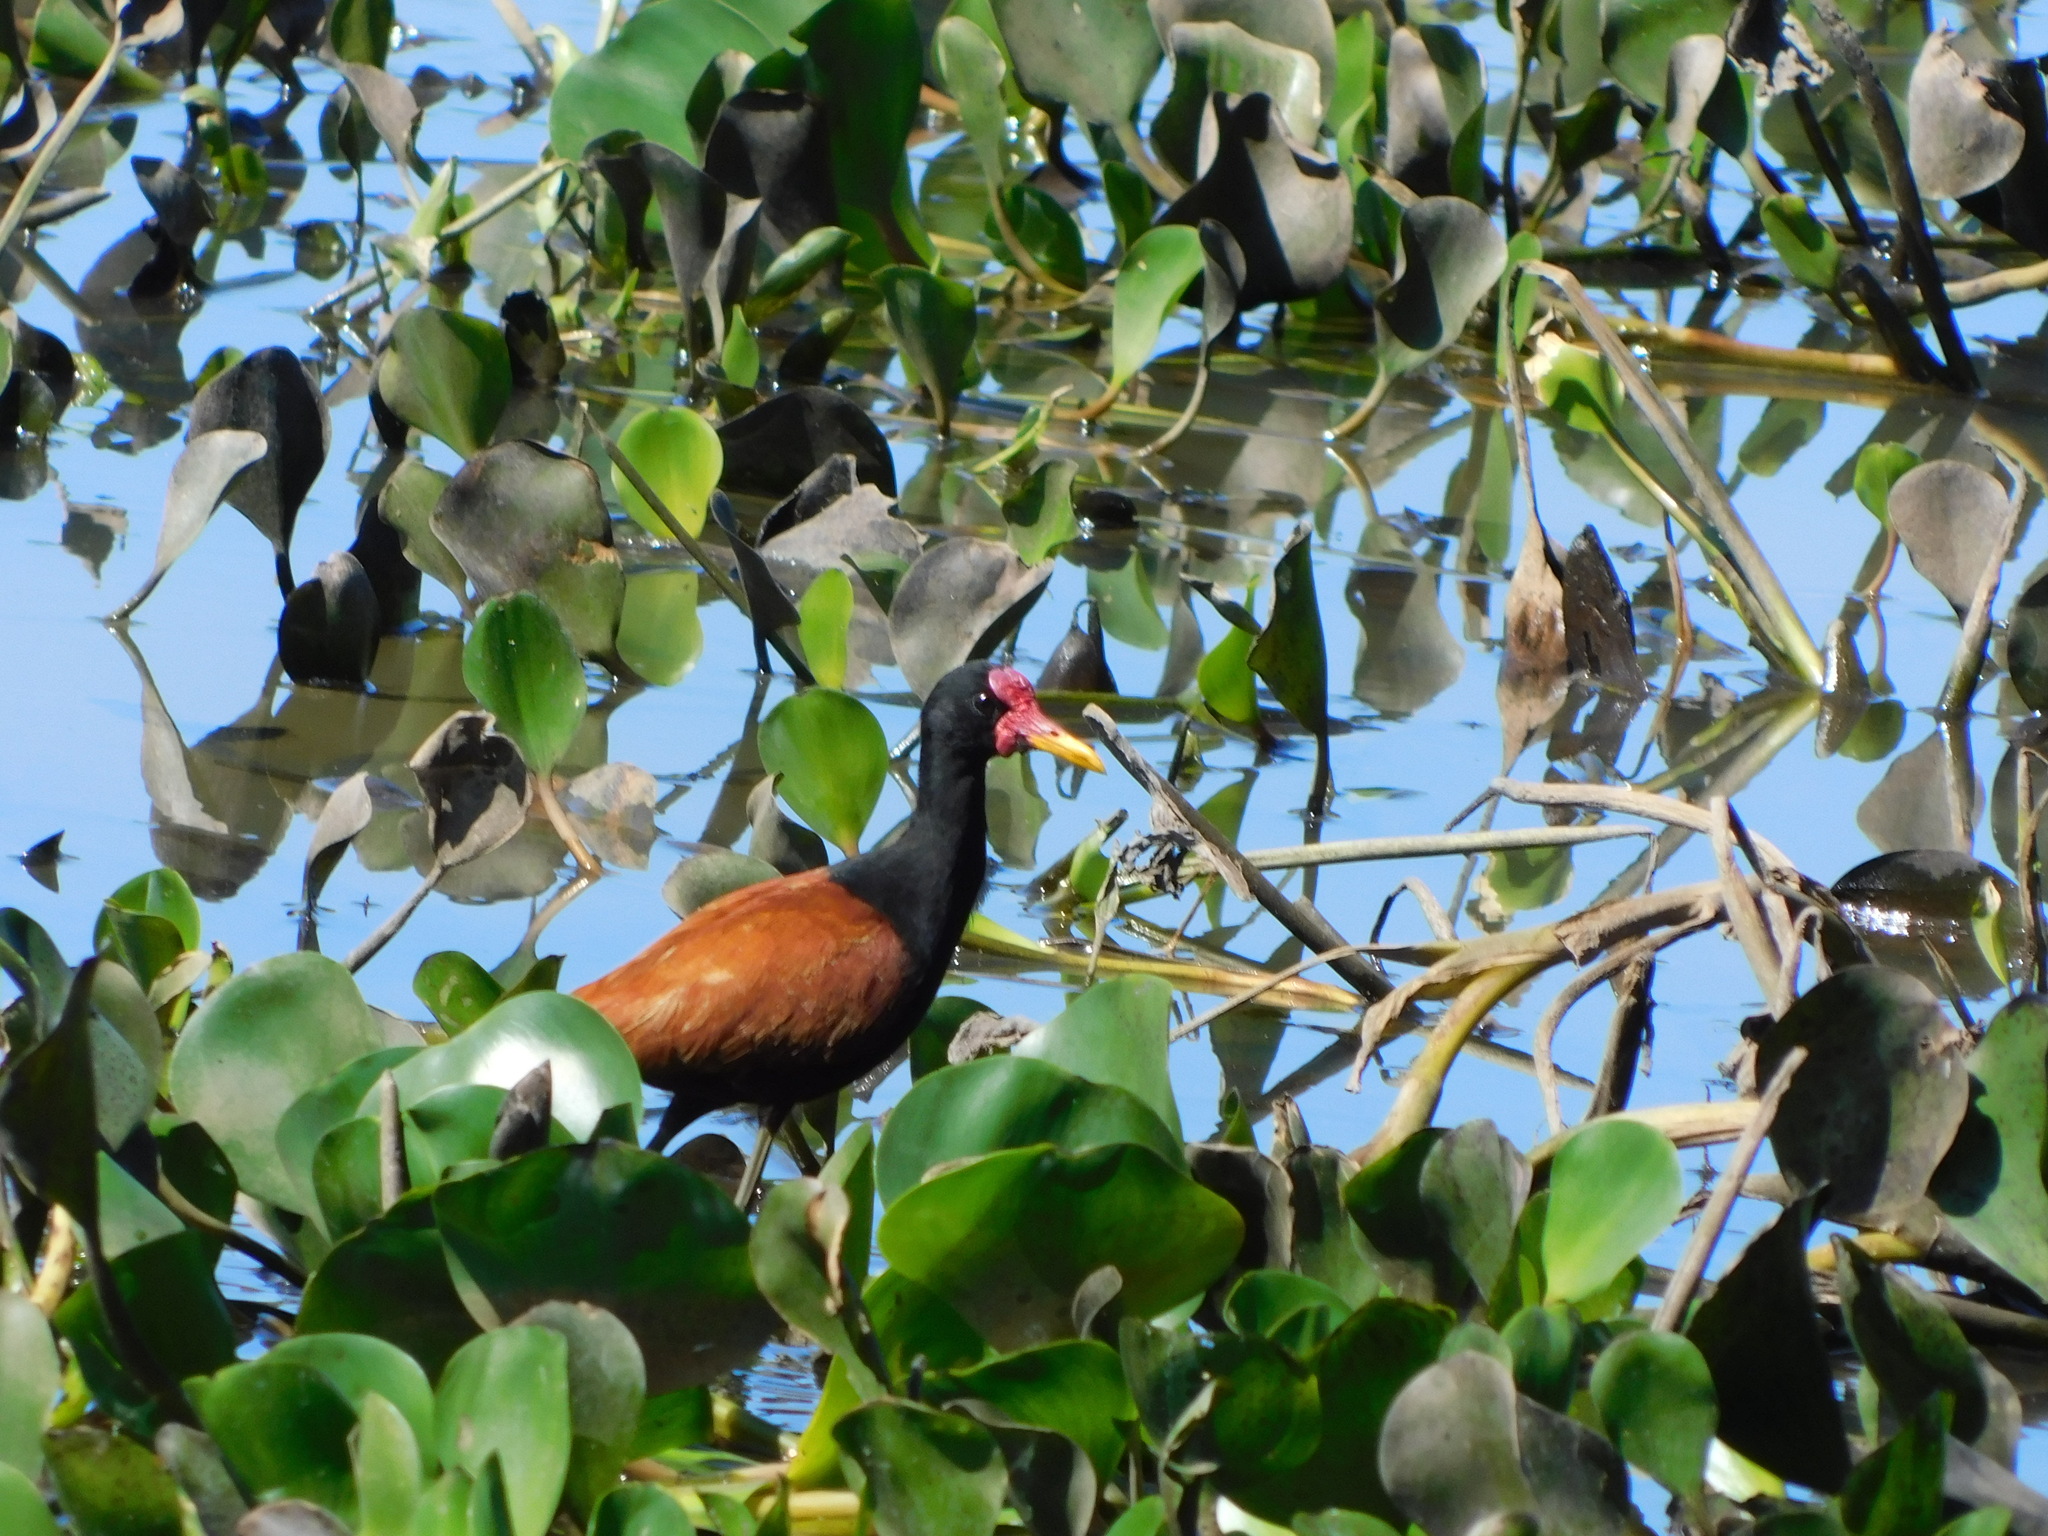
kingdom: Animalia
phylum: Chordata
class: Aves
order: Charadriiformes
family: Jacanidae
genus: Jacana
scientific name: Jacana jacana
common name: Wattled jacana
